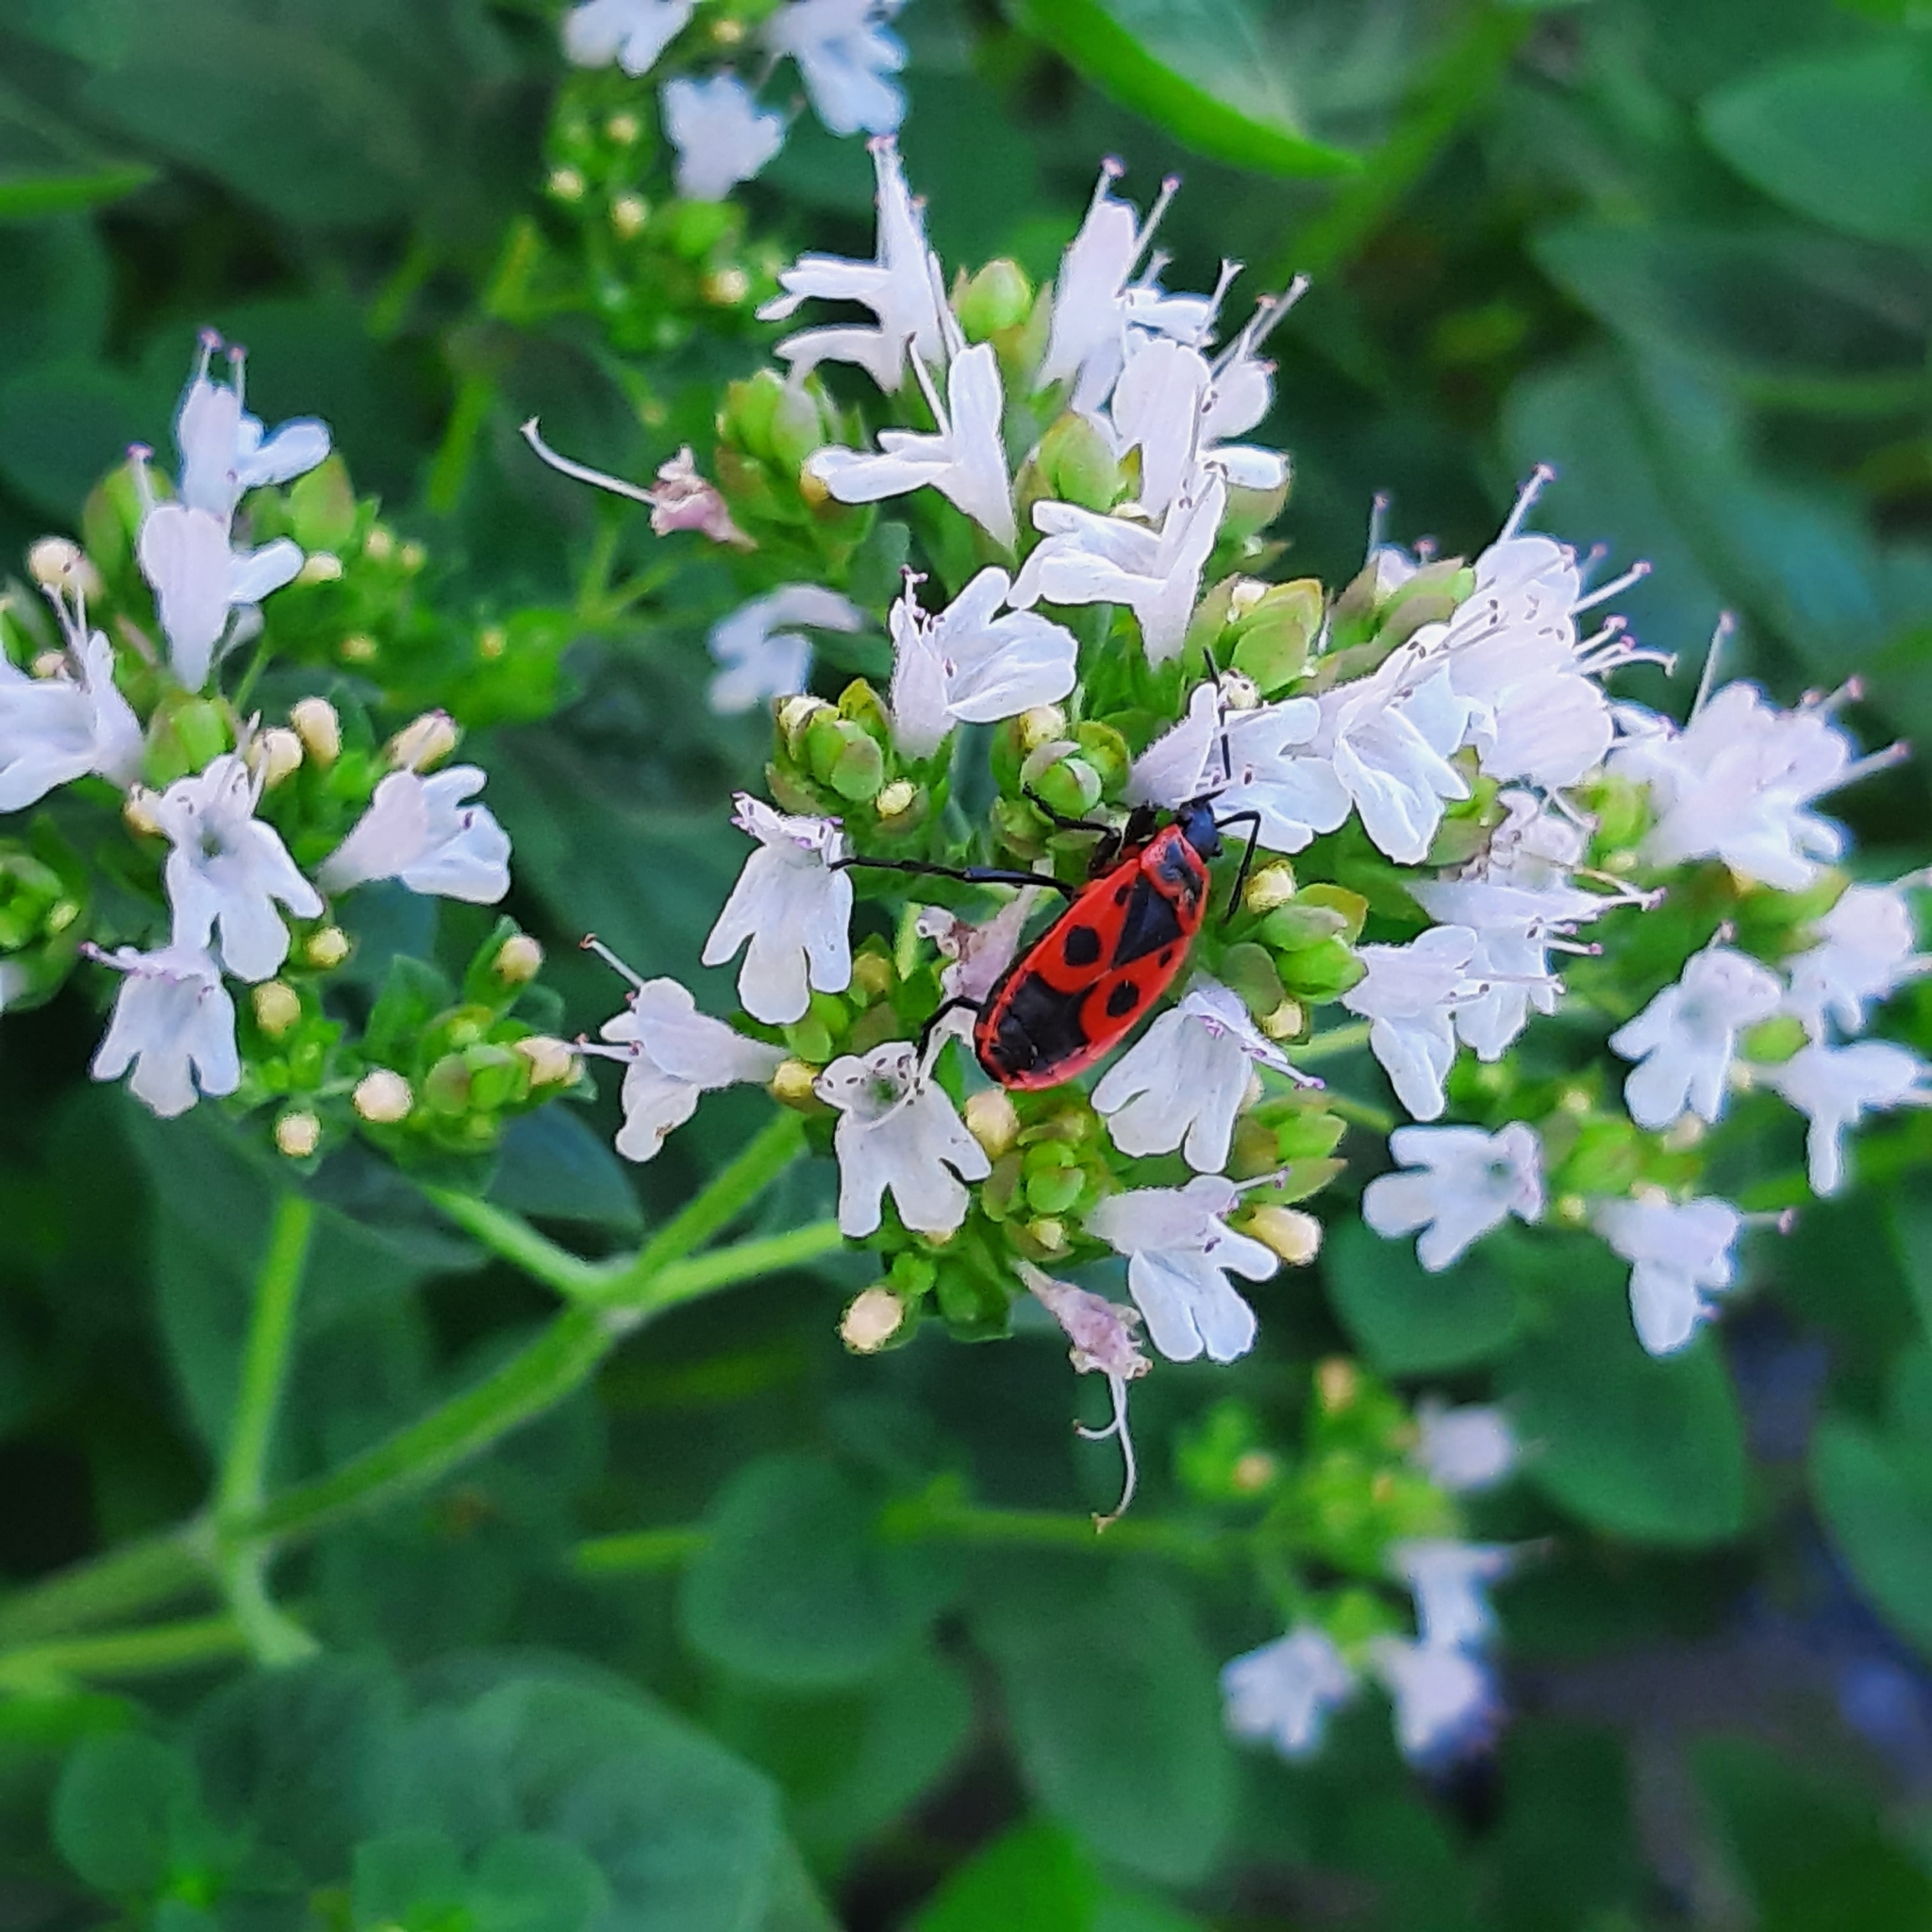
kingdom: Animalia
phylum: Arthropoda
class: Insecta
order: Hemiptera
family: Pyrrhocoridae
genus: Pyrrhocoris
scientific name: Pyrrhocoris apterus
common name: Firebug
